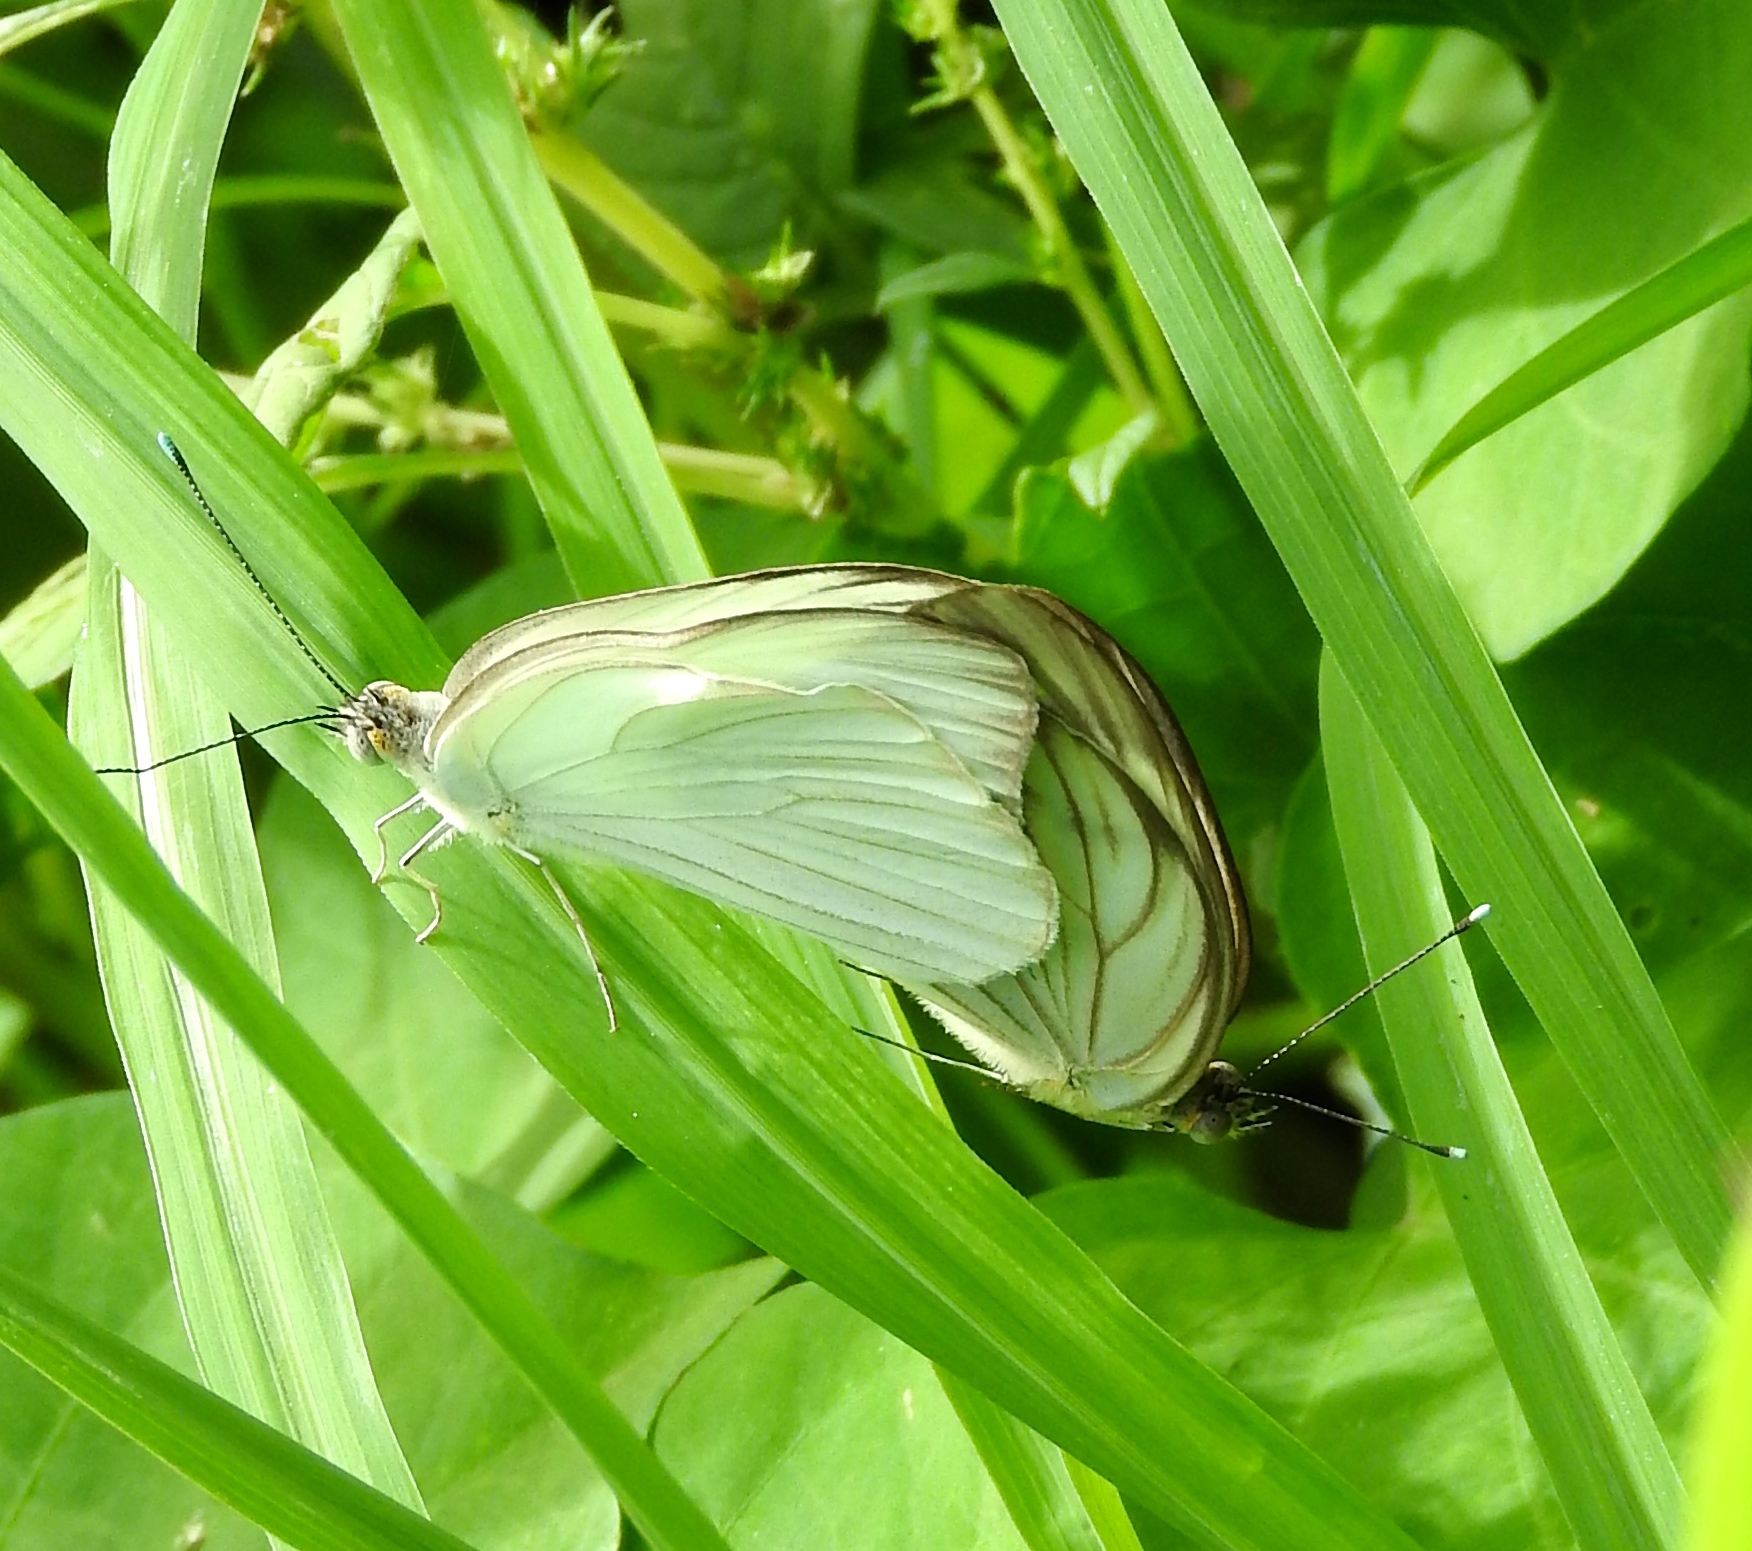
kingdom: Animalia
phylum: Arthropoda
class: Insecta
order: Lepidoptera
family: Pieridae
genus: Ascia
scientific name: Ascia monuste
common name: Great southern white
